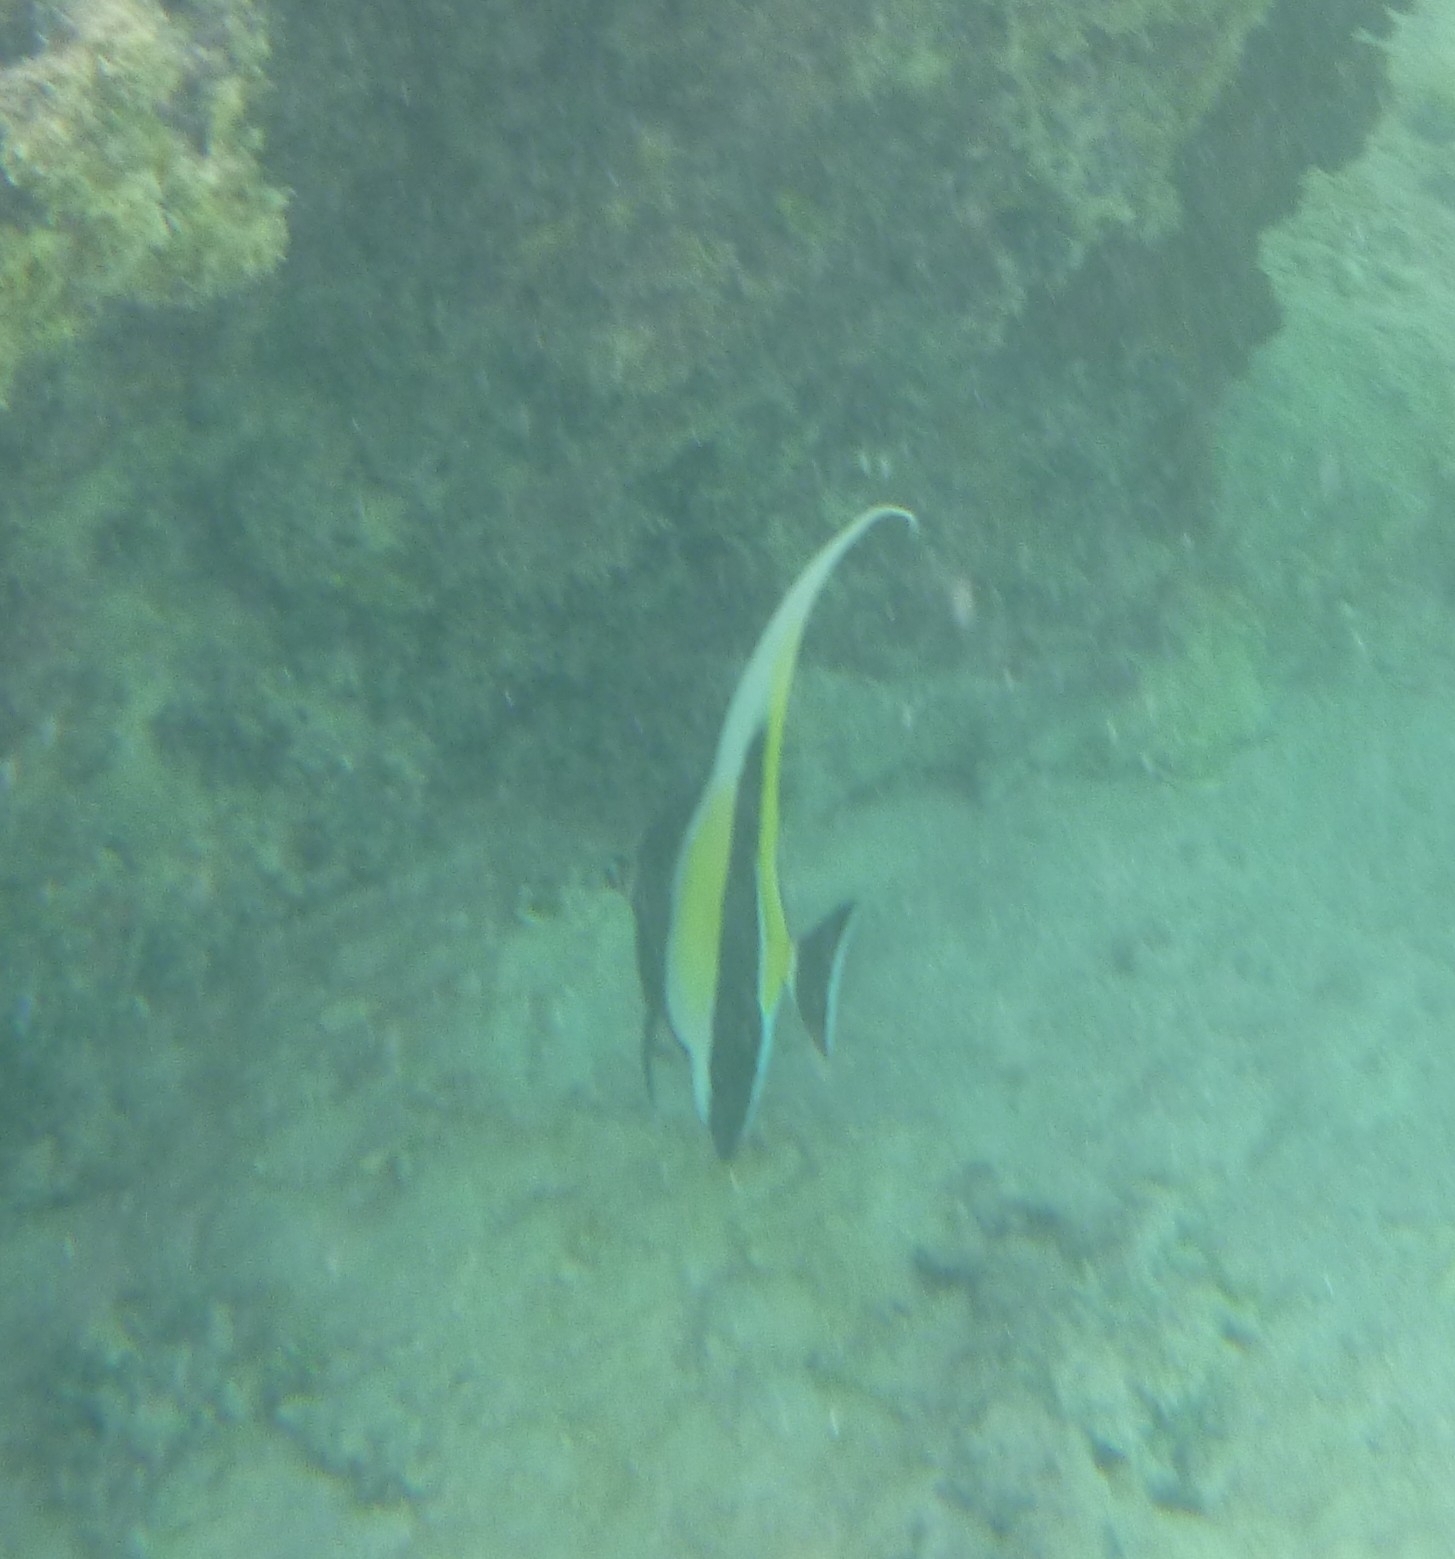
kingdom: Animalia
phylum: Chordata
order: Perciformes
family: Zanclidae
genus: Zanclus
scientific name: Zanclus cornutus
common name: Moorish idol
